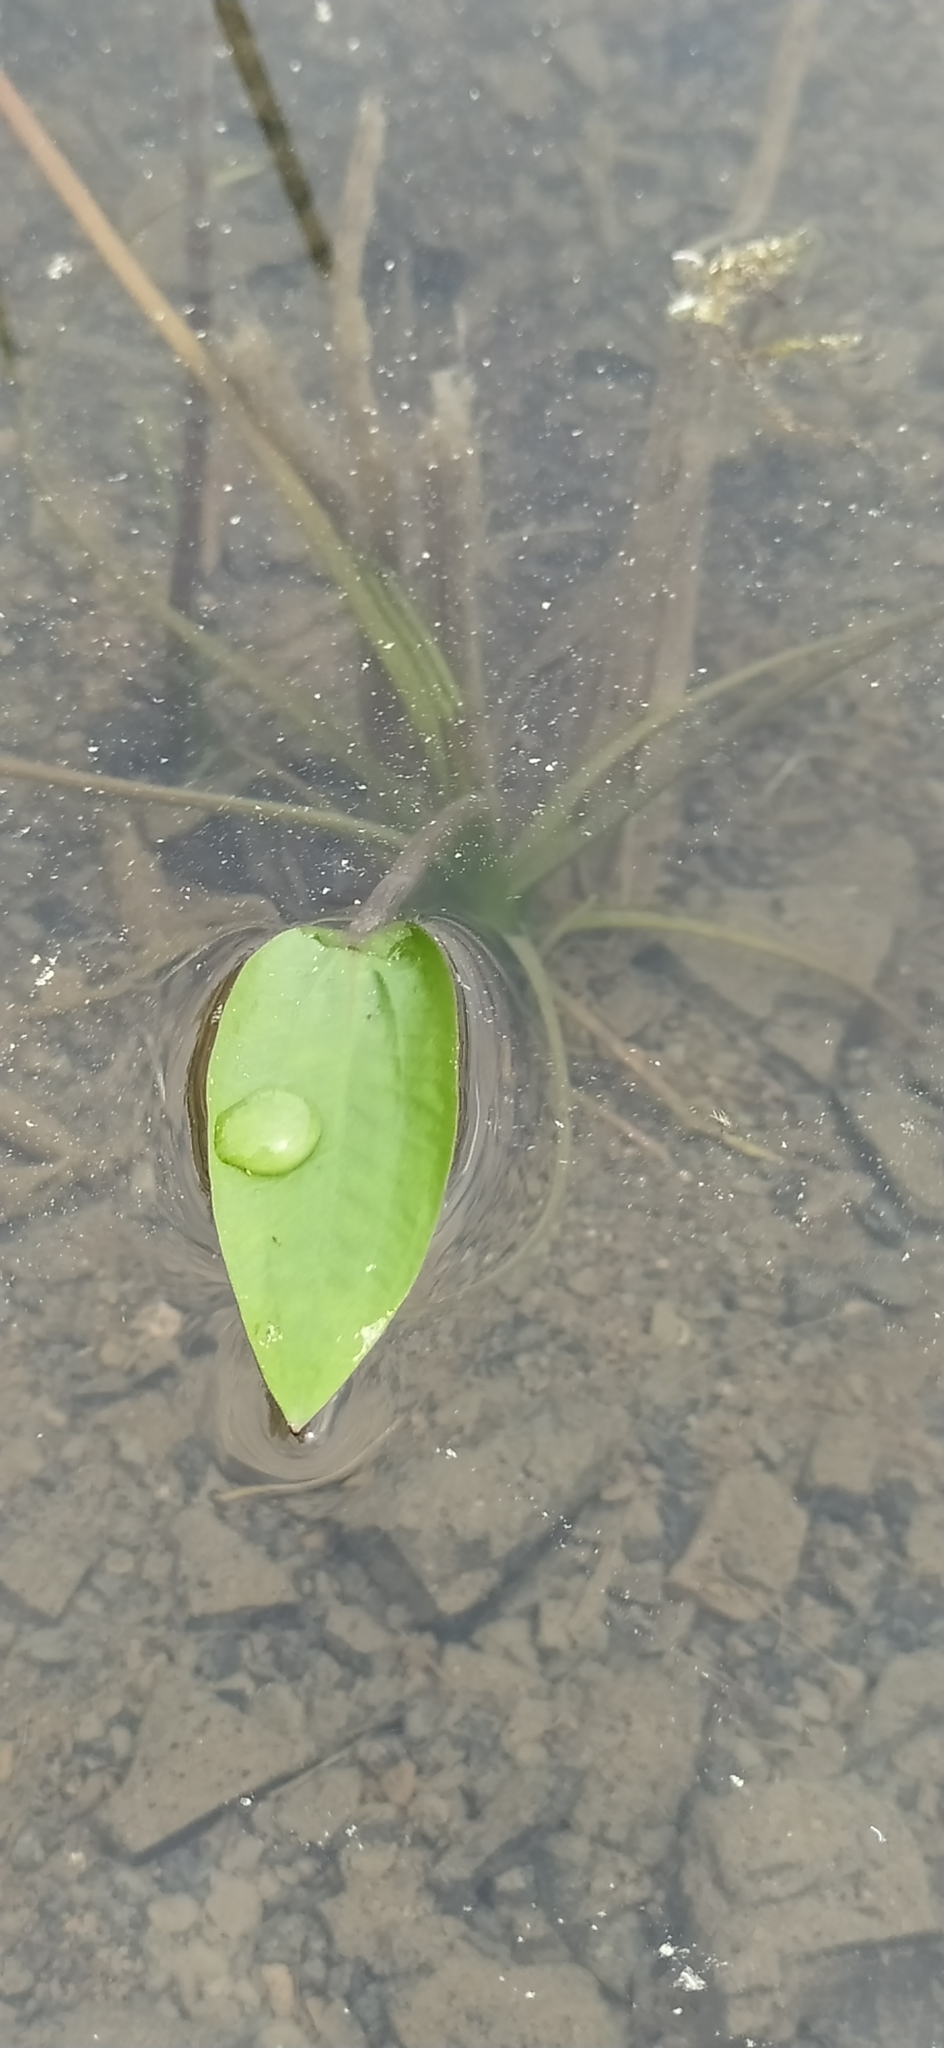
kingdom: Plantae
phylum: Tracheophyta
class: Liliopsida
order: Alismatales
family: Alismataceae
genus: Alisma
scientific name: Alisma plantago-aquatica
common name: Water-plantain
